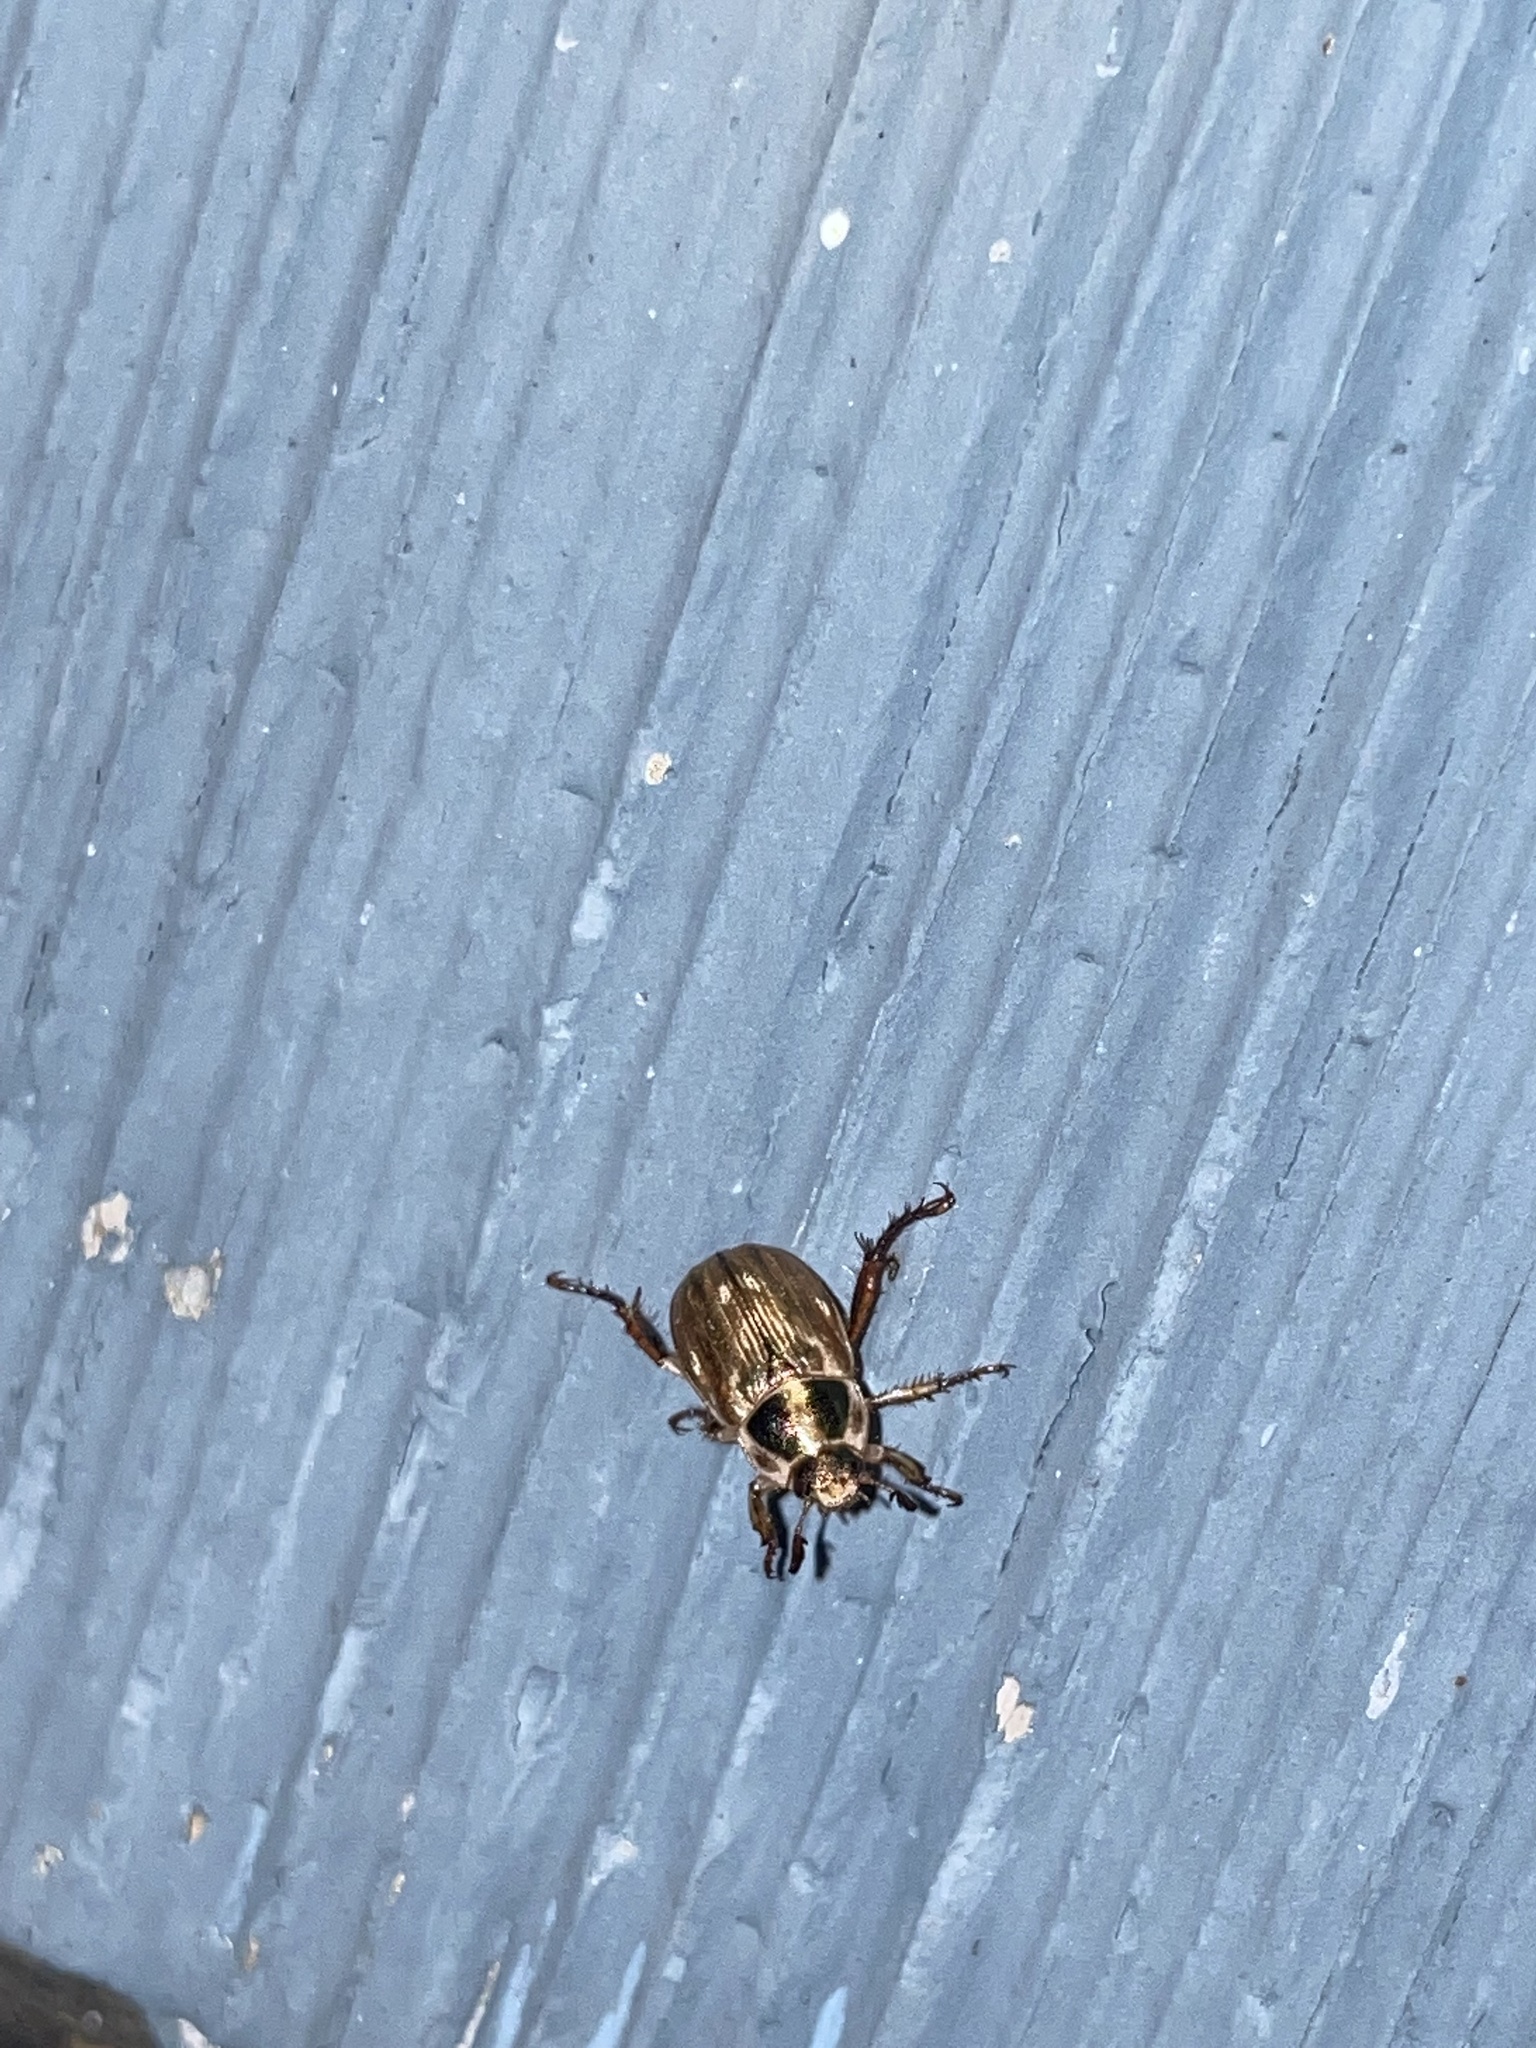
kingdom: Animalia
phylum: Arthropoda
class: Insecta
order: Coleoptera
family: Scarabaeidae
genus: Exomala
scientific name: Exomala orientalis
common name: Oriental beetle
